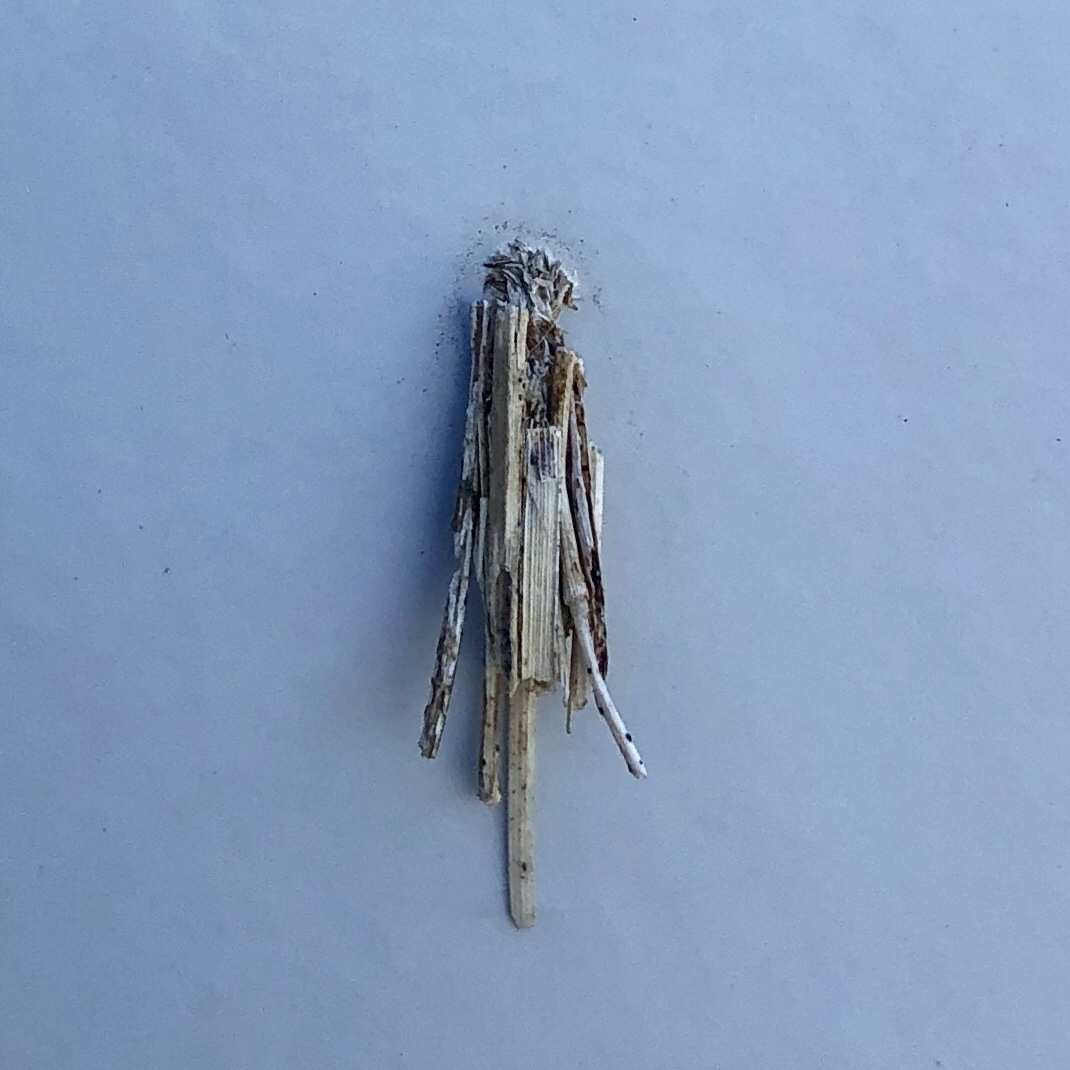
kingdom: Animalia
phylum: Arthropoda
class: Insecta
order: Lepidoptera
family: Psychidae
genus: Psyche
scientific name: Psyche casta
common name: Common sweep
